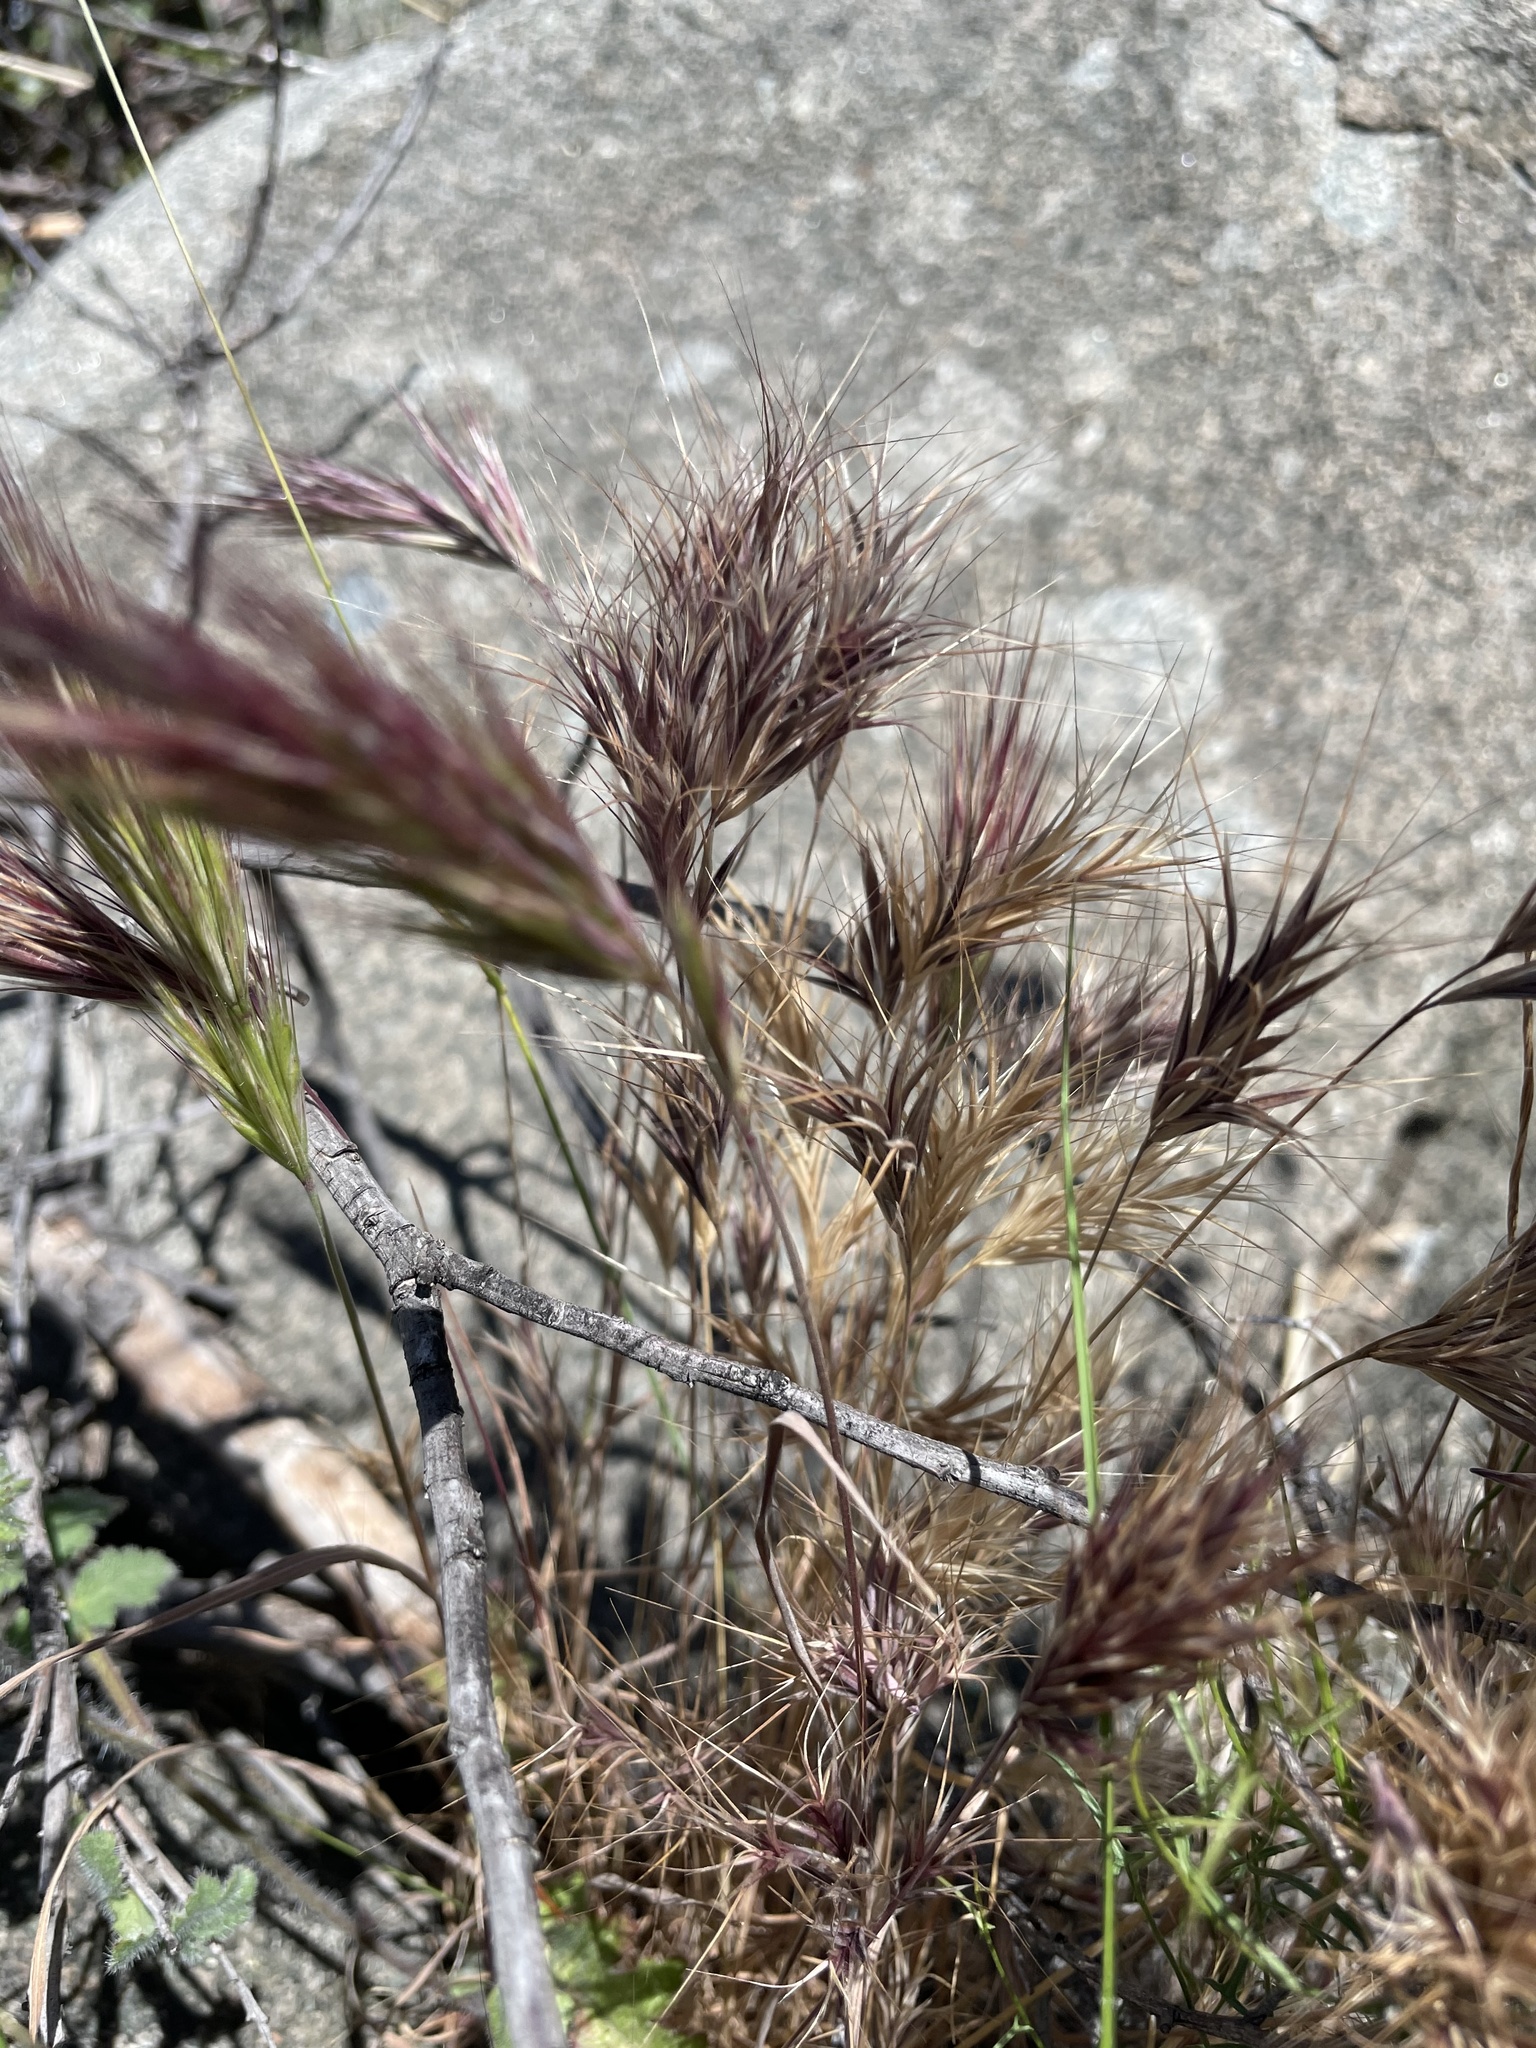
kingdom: Plantae
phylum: Tracheophyta
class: Liliopsida
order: Poales
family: Poaceae
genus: Bromus
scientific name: Bromus rubens
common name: Red brome
